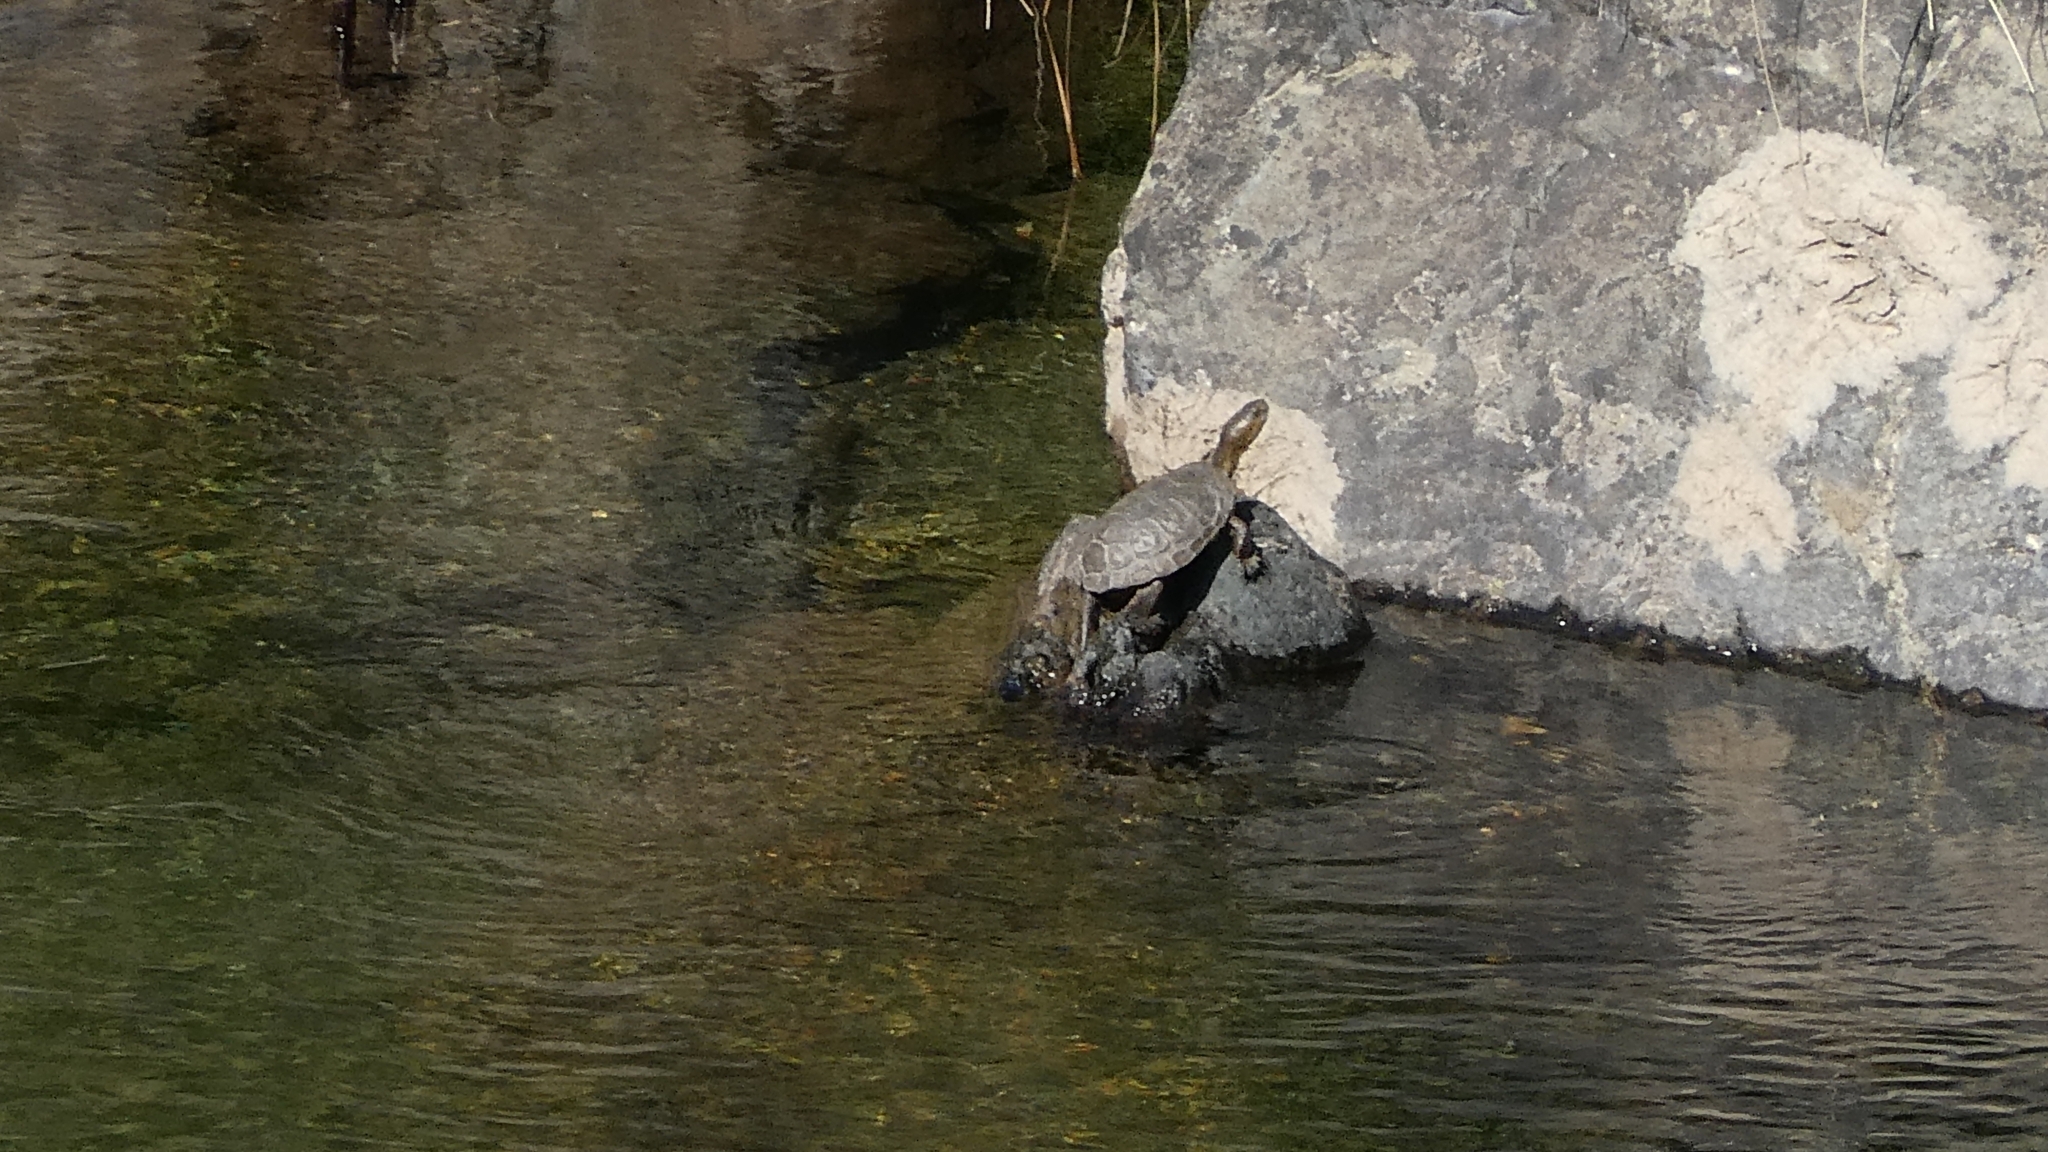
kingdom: Animalia
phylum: Chordata
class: Testudines
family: Emydidae
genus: Actinemys
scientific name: Actinemys marmorata
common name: Western pond turtle
